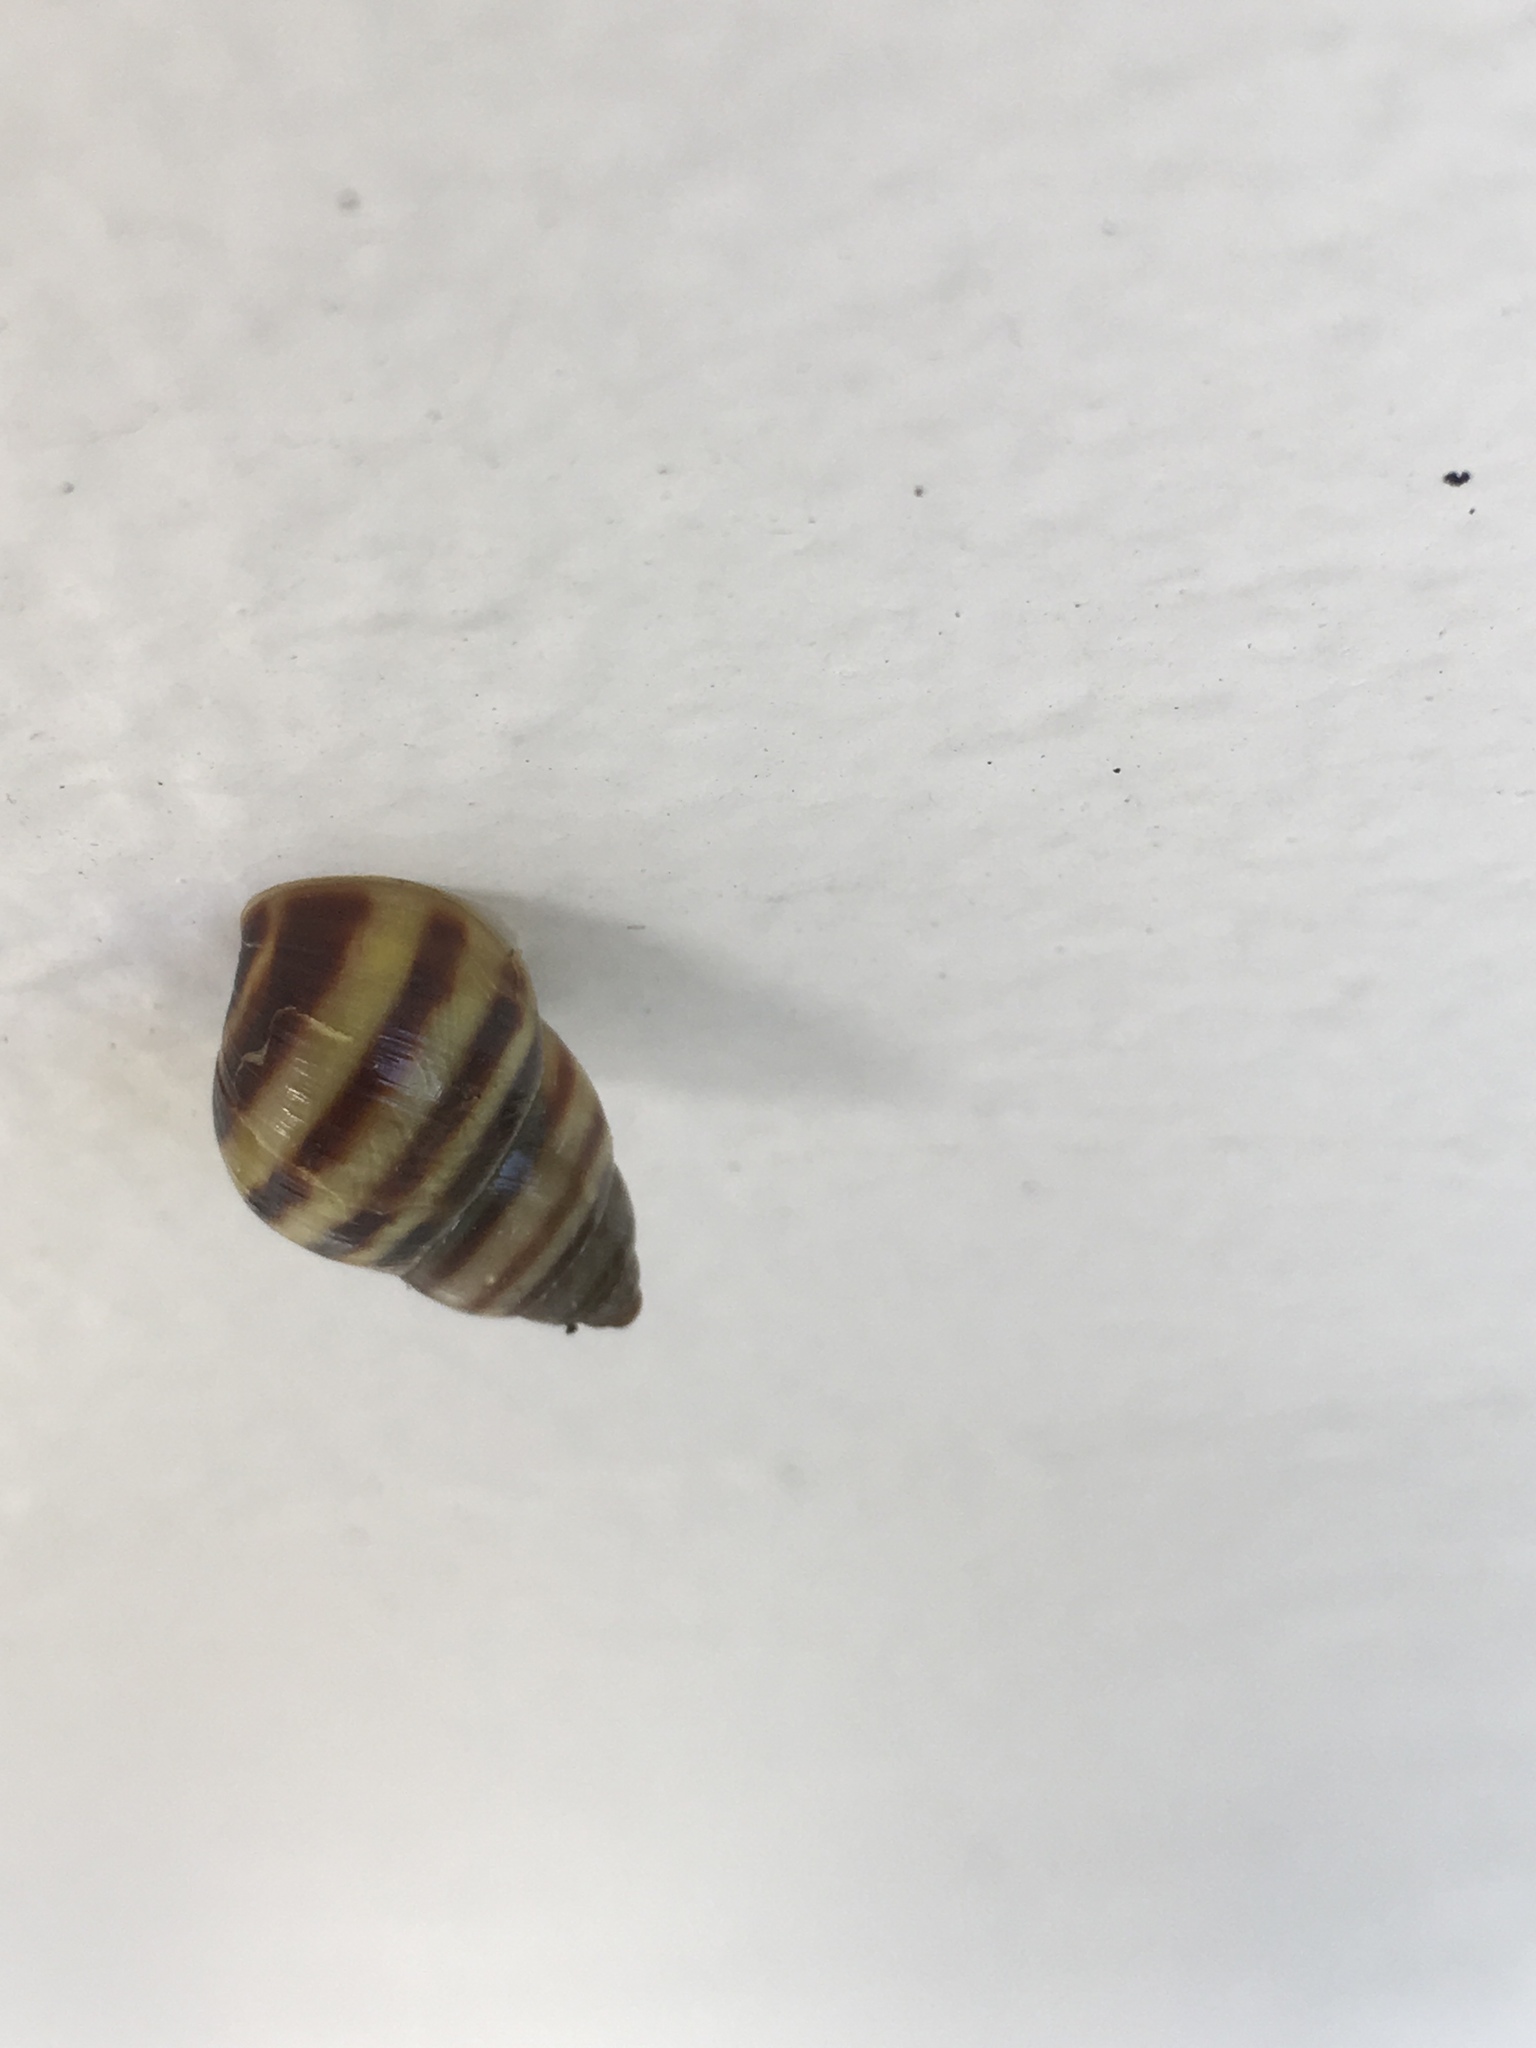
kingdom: Animalia
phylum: Mollusca
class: Gastropoda
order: Stylommatophora
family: Bulimulidae
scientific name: Bulimulidae
